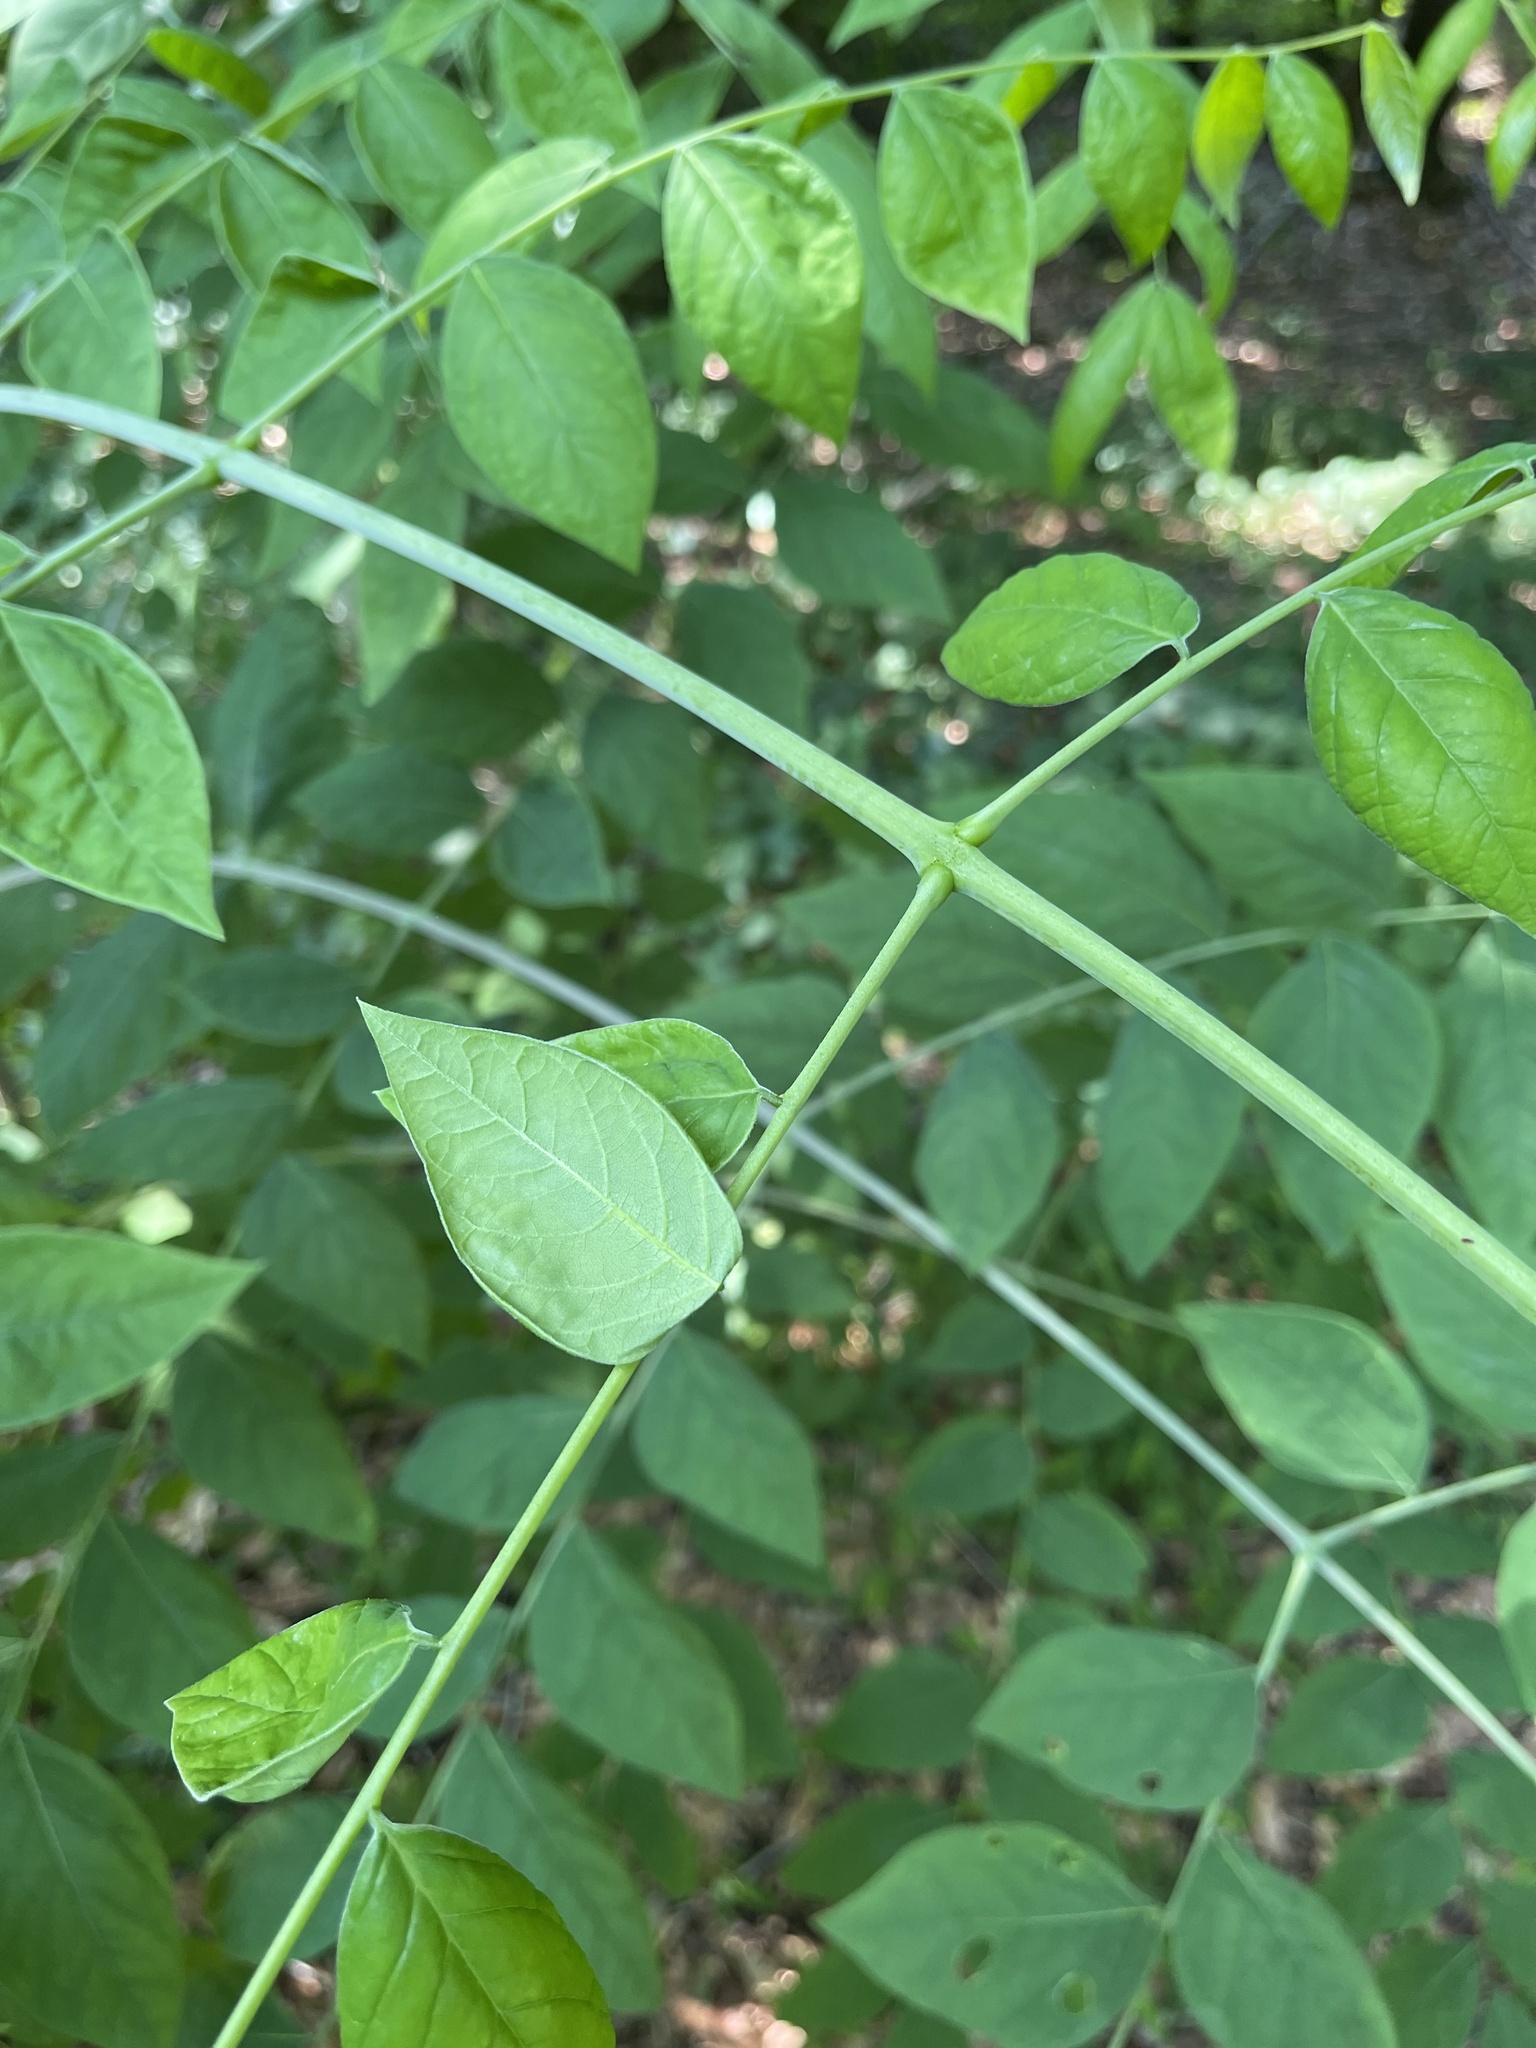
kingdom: Plantae
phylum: Tracheophyta
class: Magnoliopsida
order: Fabales
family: Fabaceae
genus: Gymnocladus
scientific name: Gymnocladus dioicus
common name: Kentucky coffee-tree
